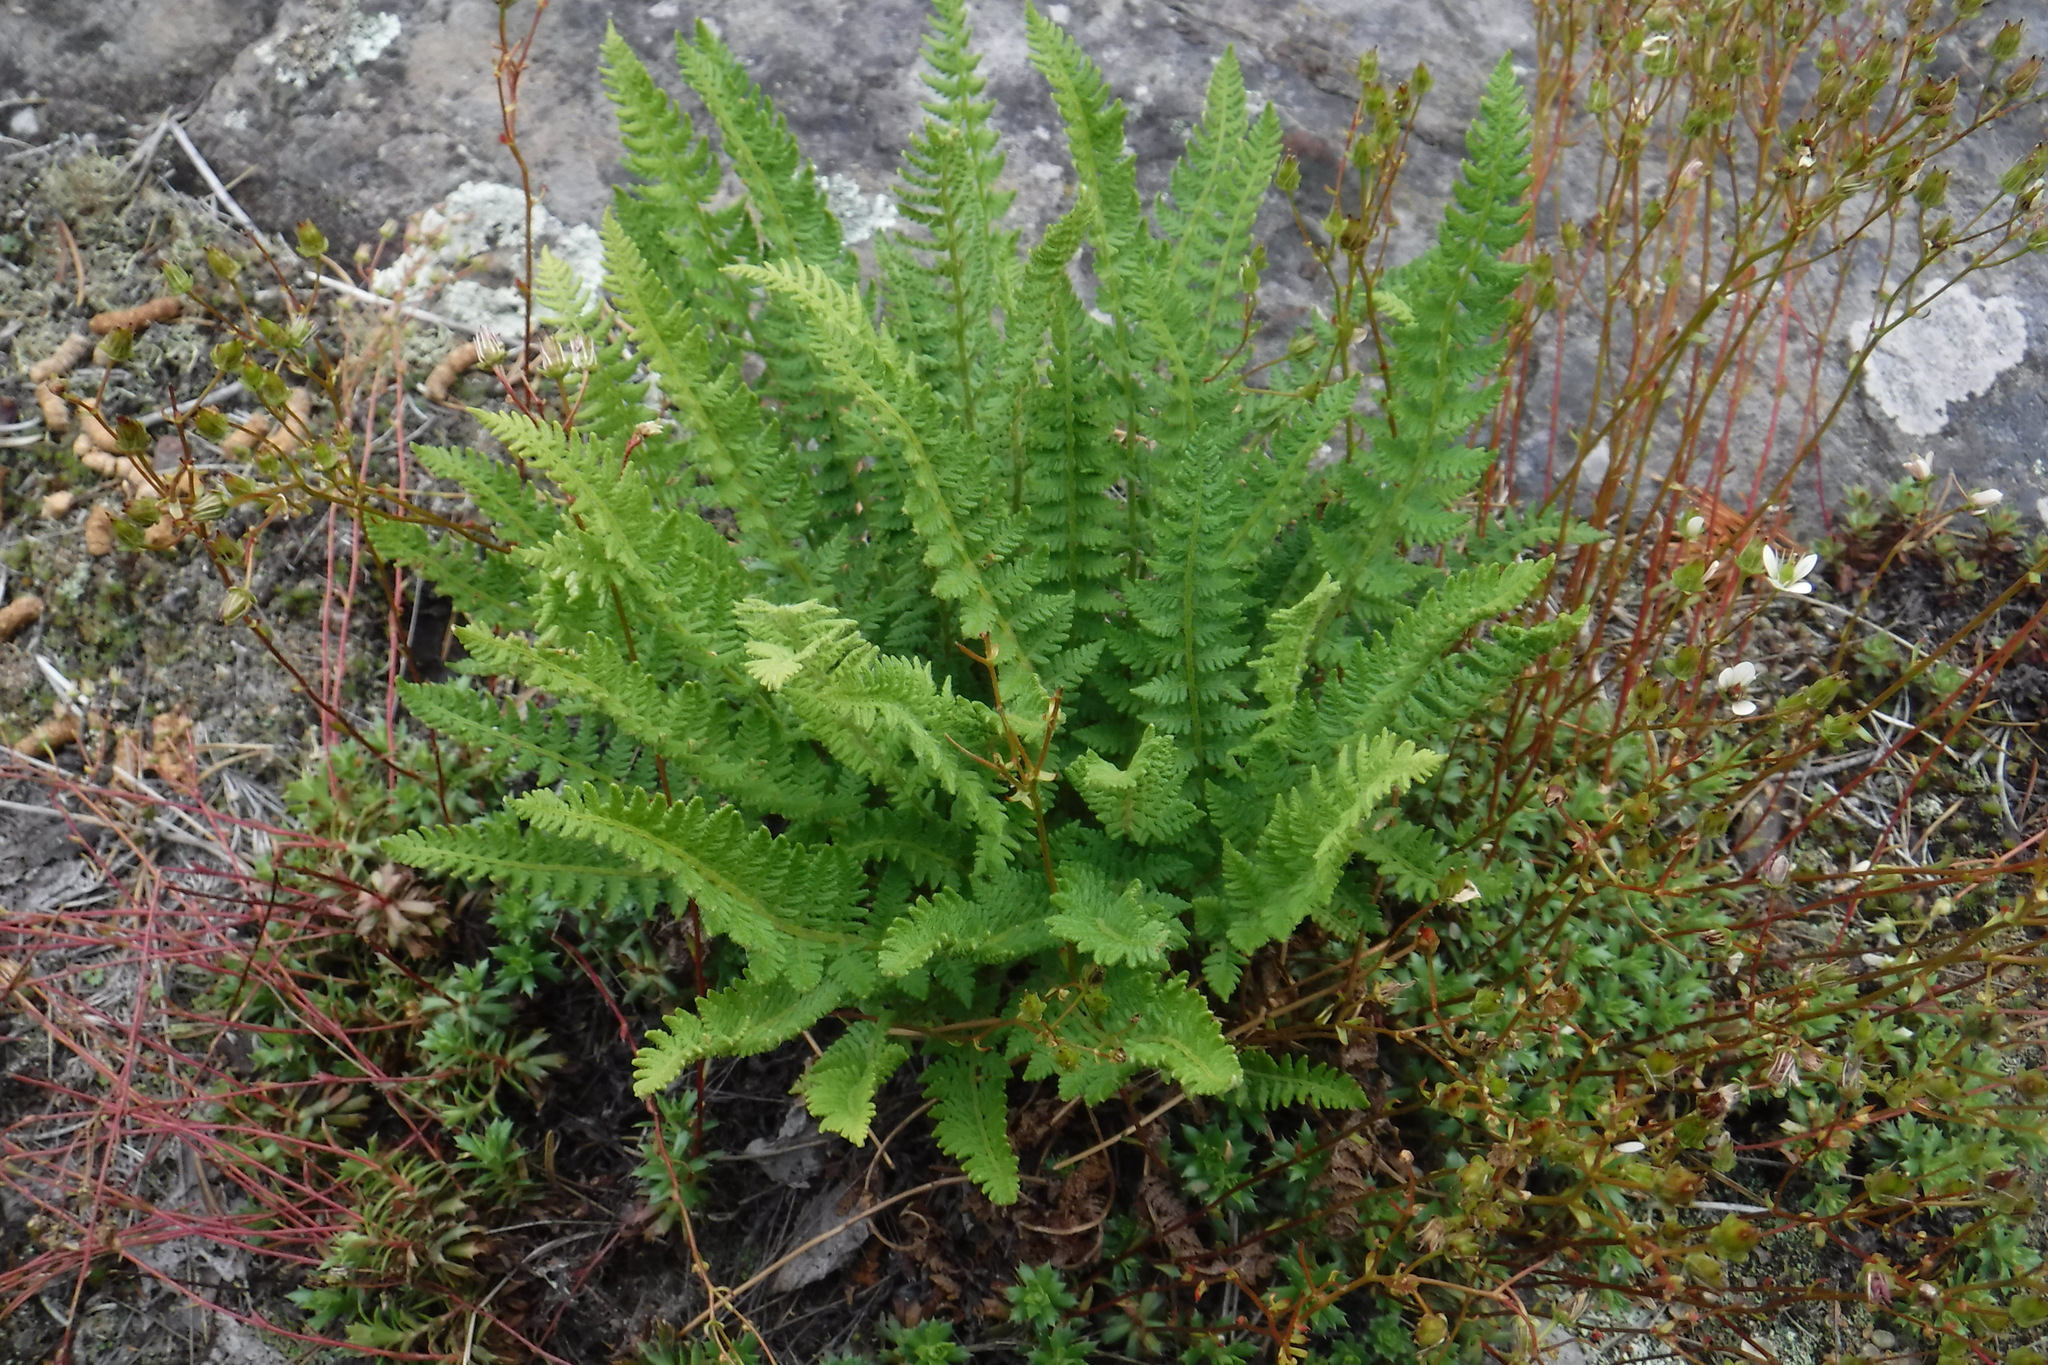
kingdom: Plantae
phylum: Tracheophyta
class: Polypodiopsida
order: Polypodiales
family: Woodsiaceae
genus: Woodsia
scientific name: Woodsia ilvensis
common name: Fragrant woodsia
